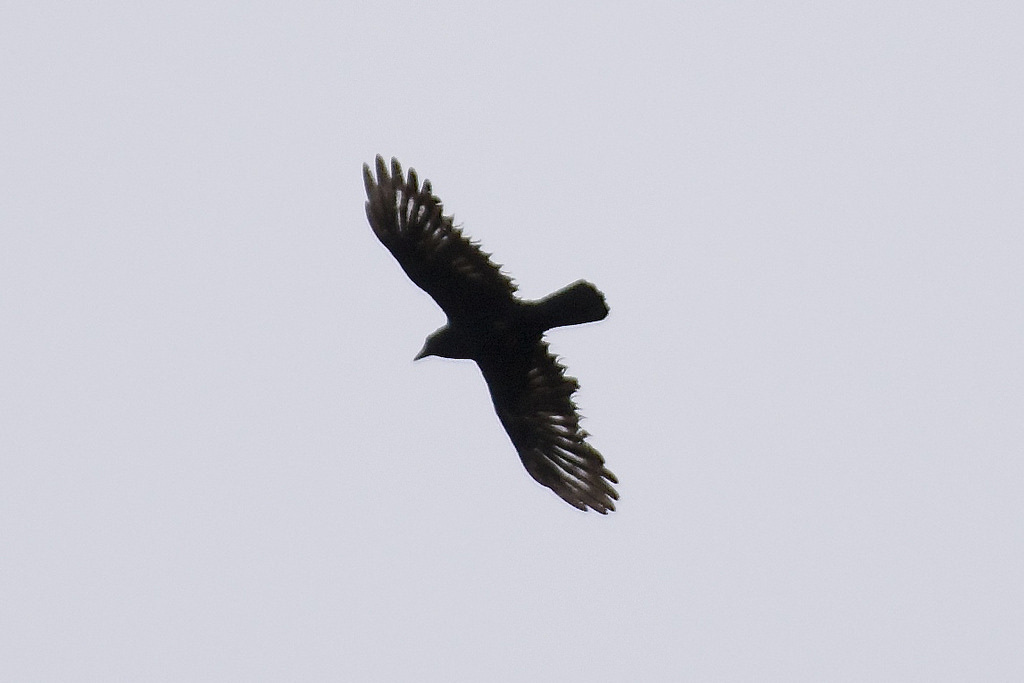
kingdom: Animalia
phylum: Chordata
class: Aves
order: Passeriformes
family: Corvidae
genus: Corvus
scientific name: Corvus brachyrhynchos
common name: American crow
